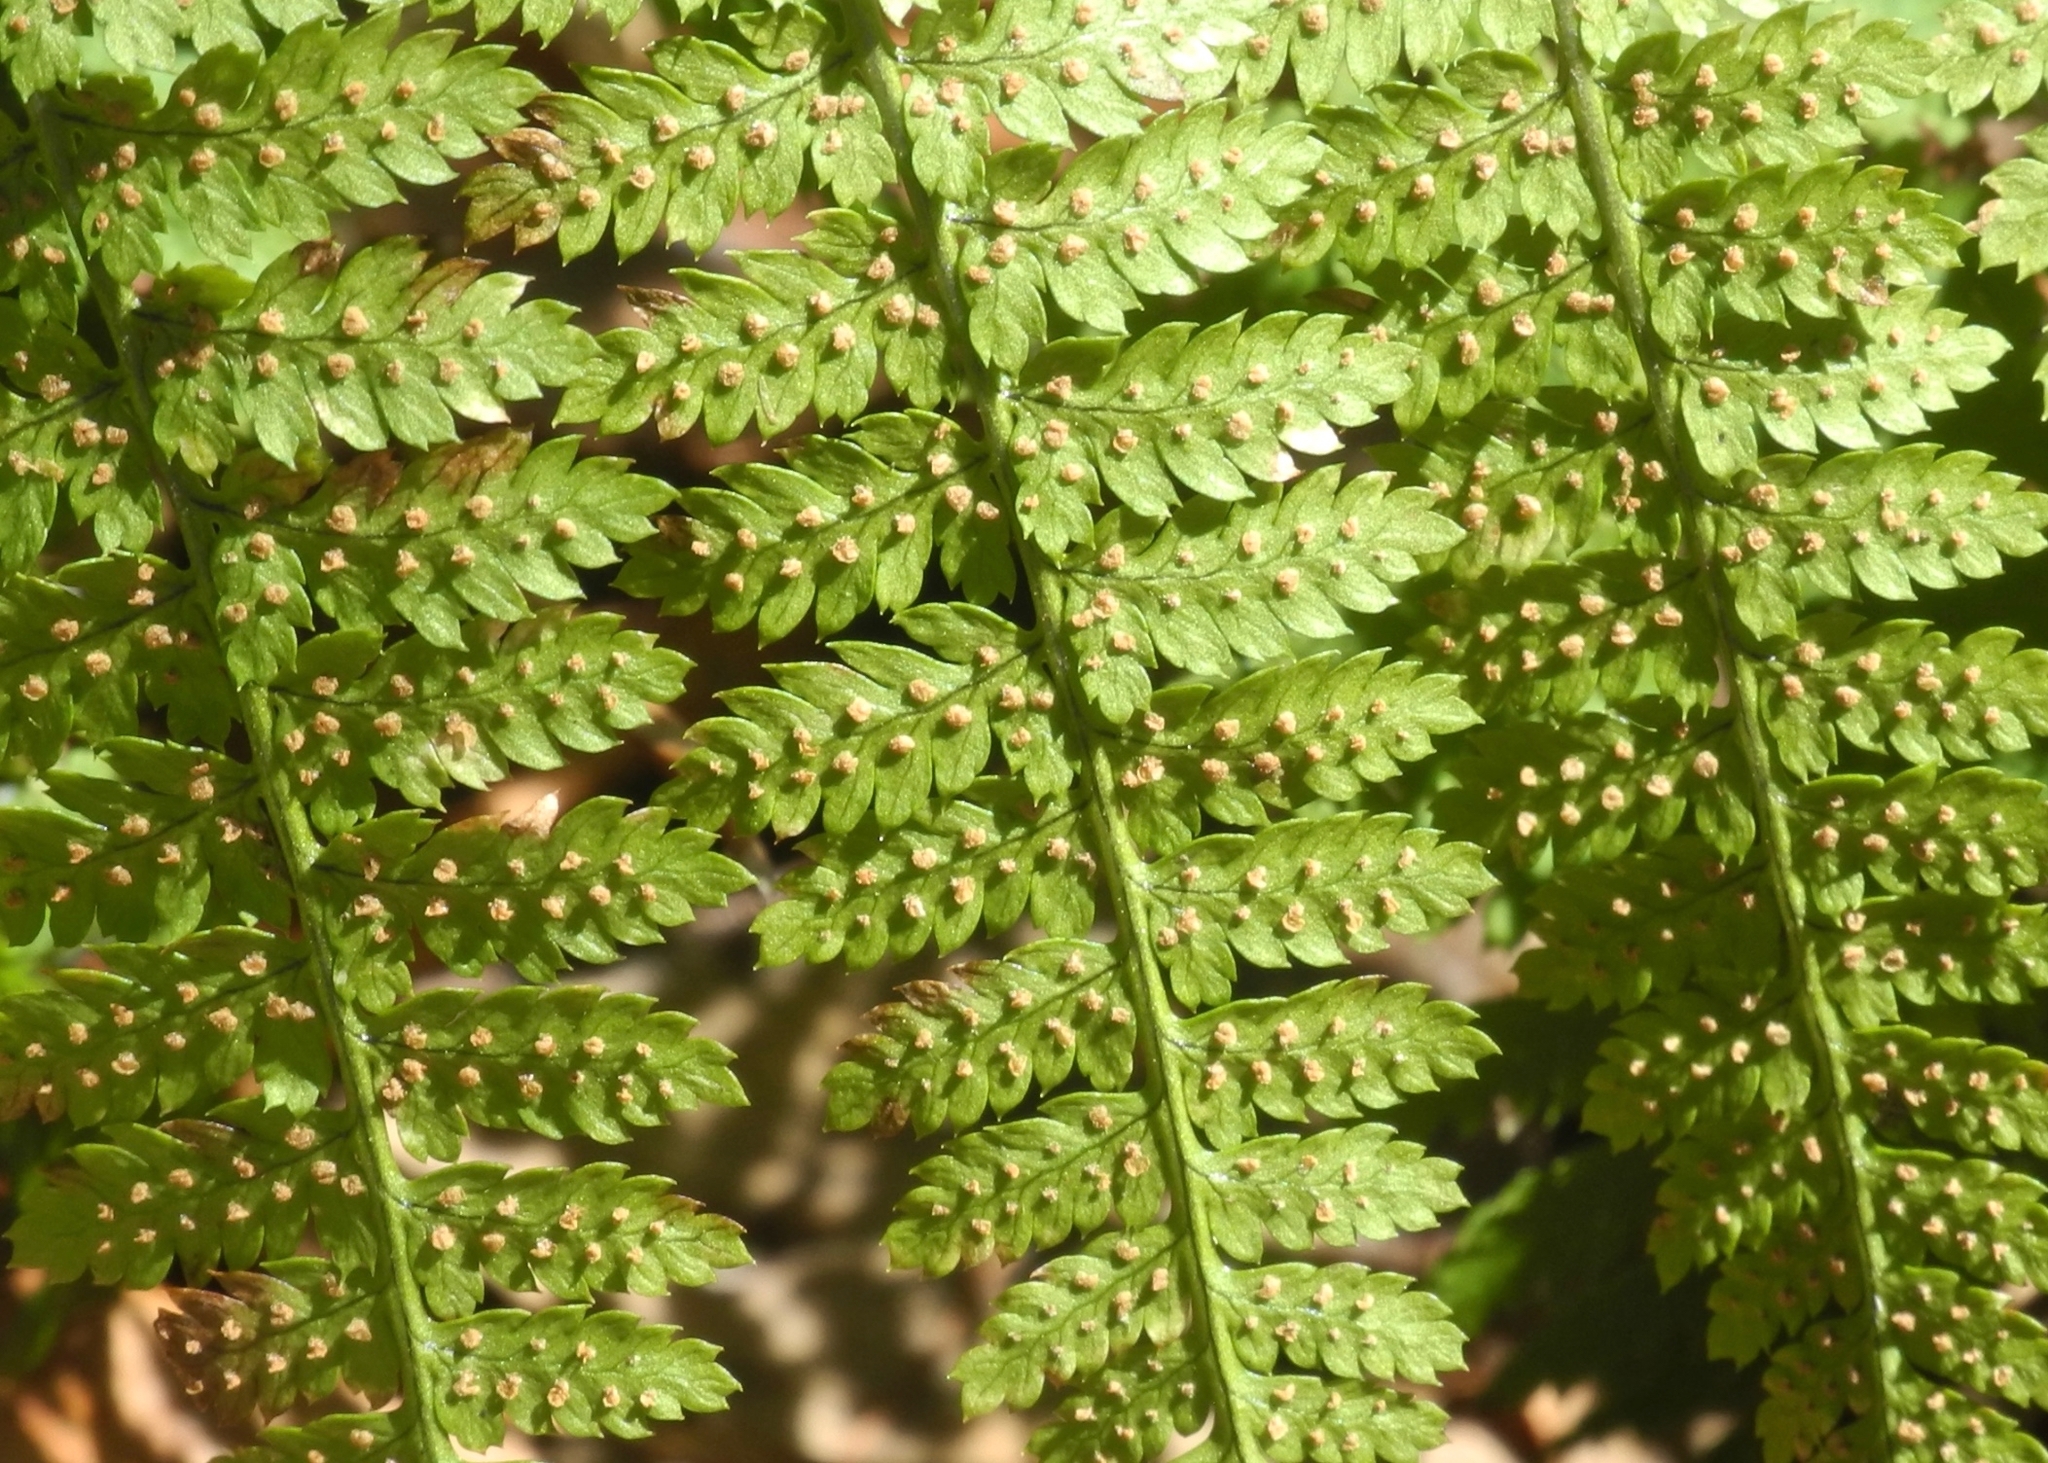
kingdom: Plantae
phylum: Tracheophyta
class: Polypodiopsida
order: Polypodiales
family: Dryopteridaceae
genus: Dryopteris
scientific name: Dryopteris carthusiana
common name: Narrow buckler-fern
